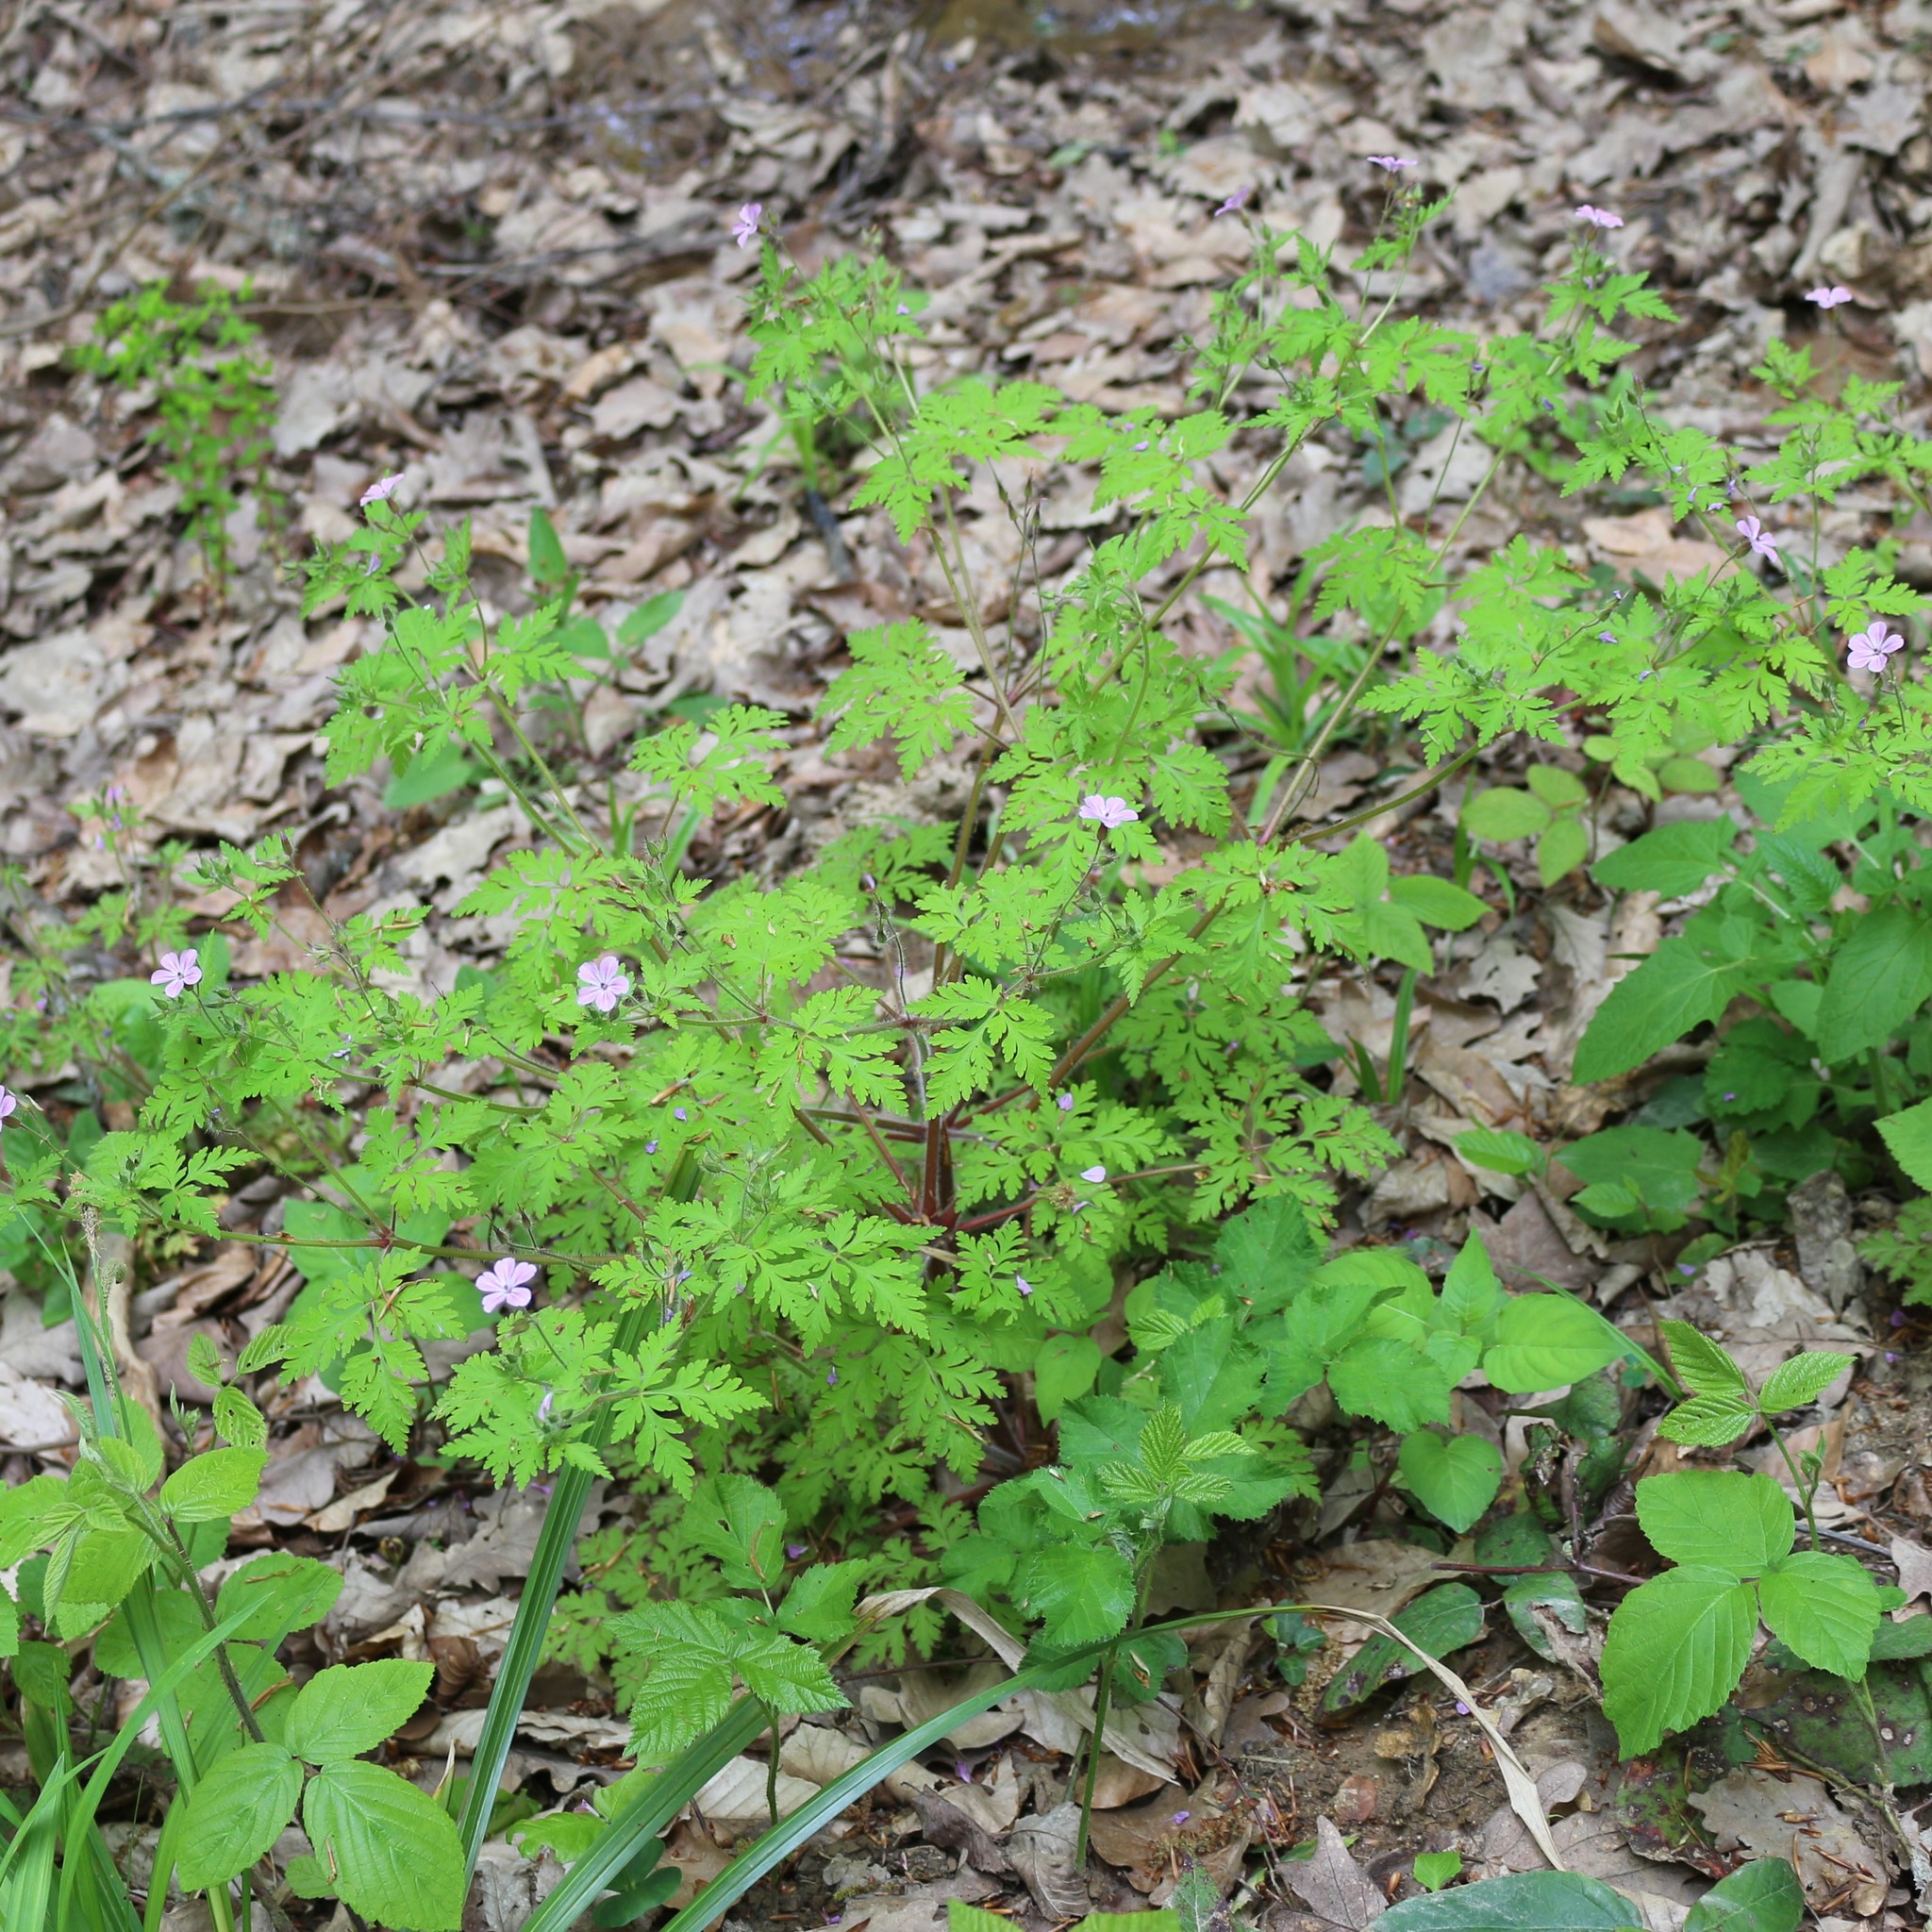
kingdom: Plantae
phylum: Tracheophyta
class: Magnoliopsida
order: Geraniales
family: Geraniaceae
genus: Geranium
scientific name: Geranium robertianum
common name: Herb-robert
